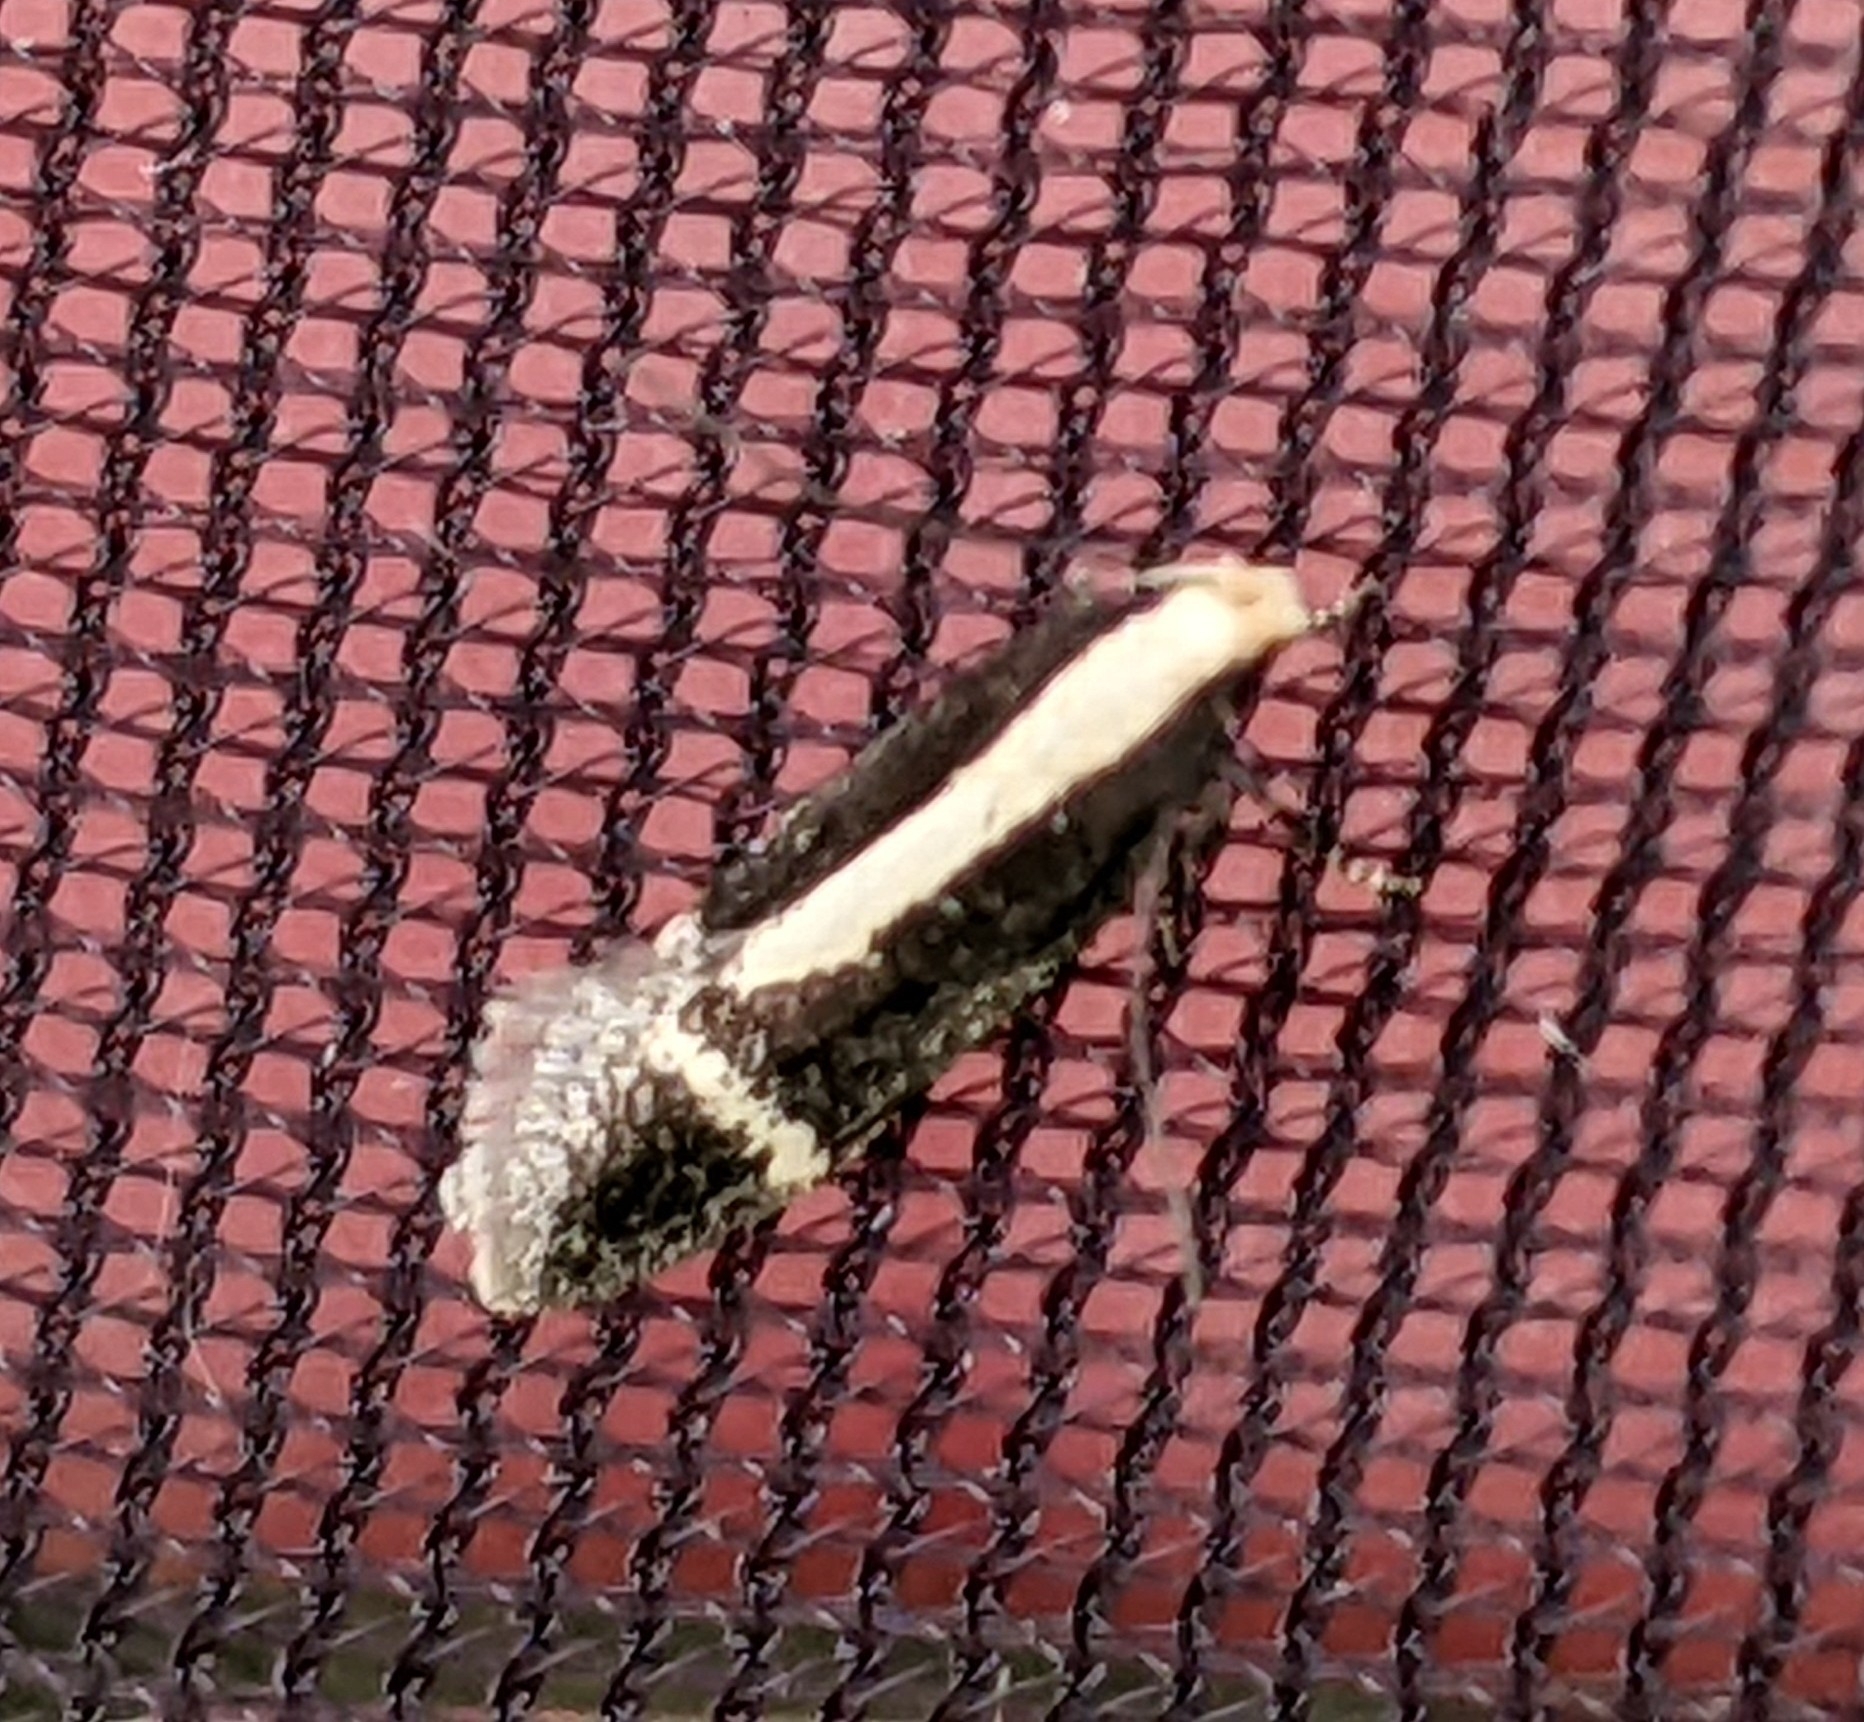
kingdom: Animalia
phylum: Arthropoda
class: Insecta
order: Lepidoptera
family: Gelechiidae
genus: Aroga
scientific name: Aroga paraplutella
